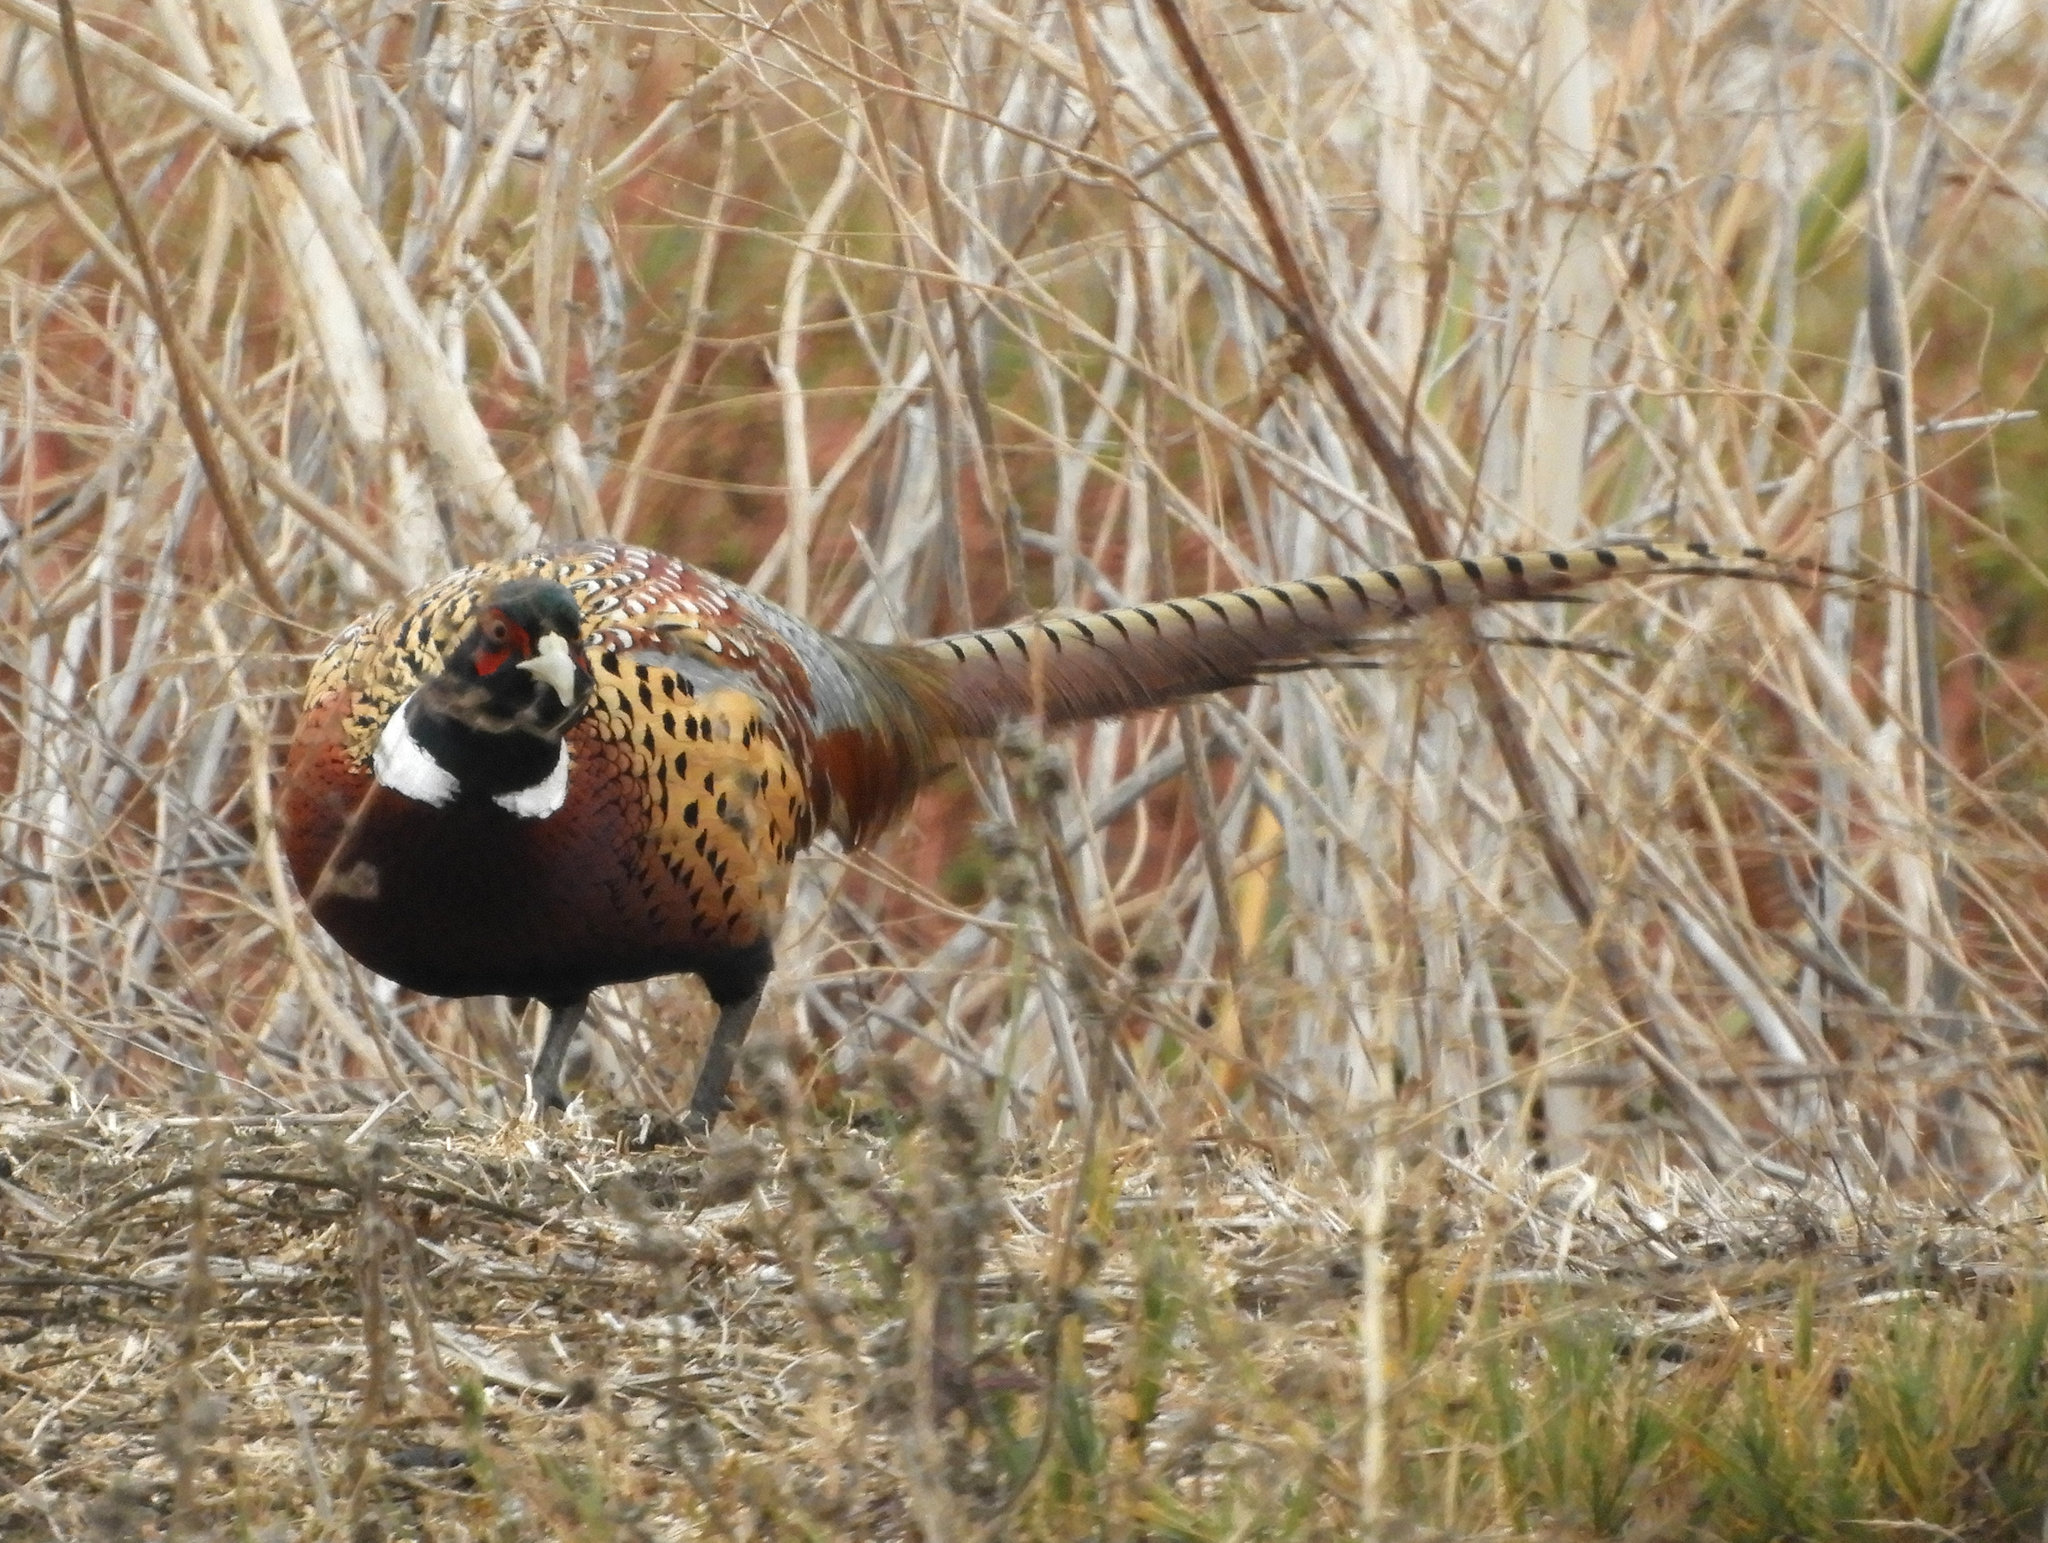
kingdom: Animalia
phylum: Chordata
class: Aves
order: Galliformes
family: Phasianidae
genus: Phasianus
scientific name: Phasianus colchicus
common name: Common pheasant
